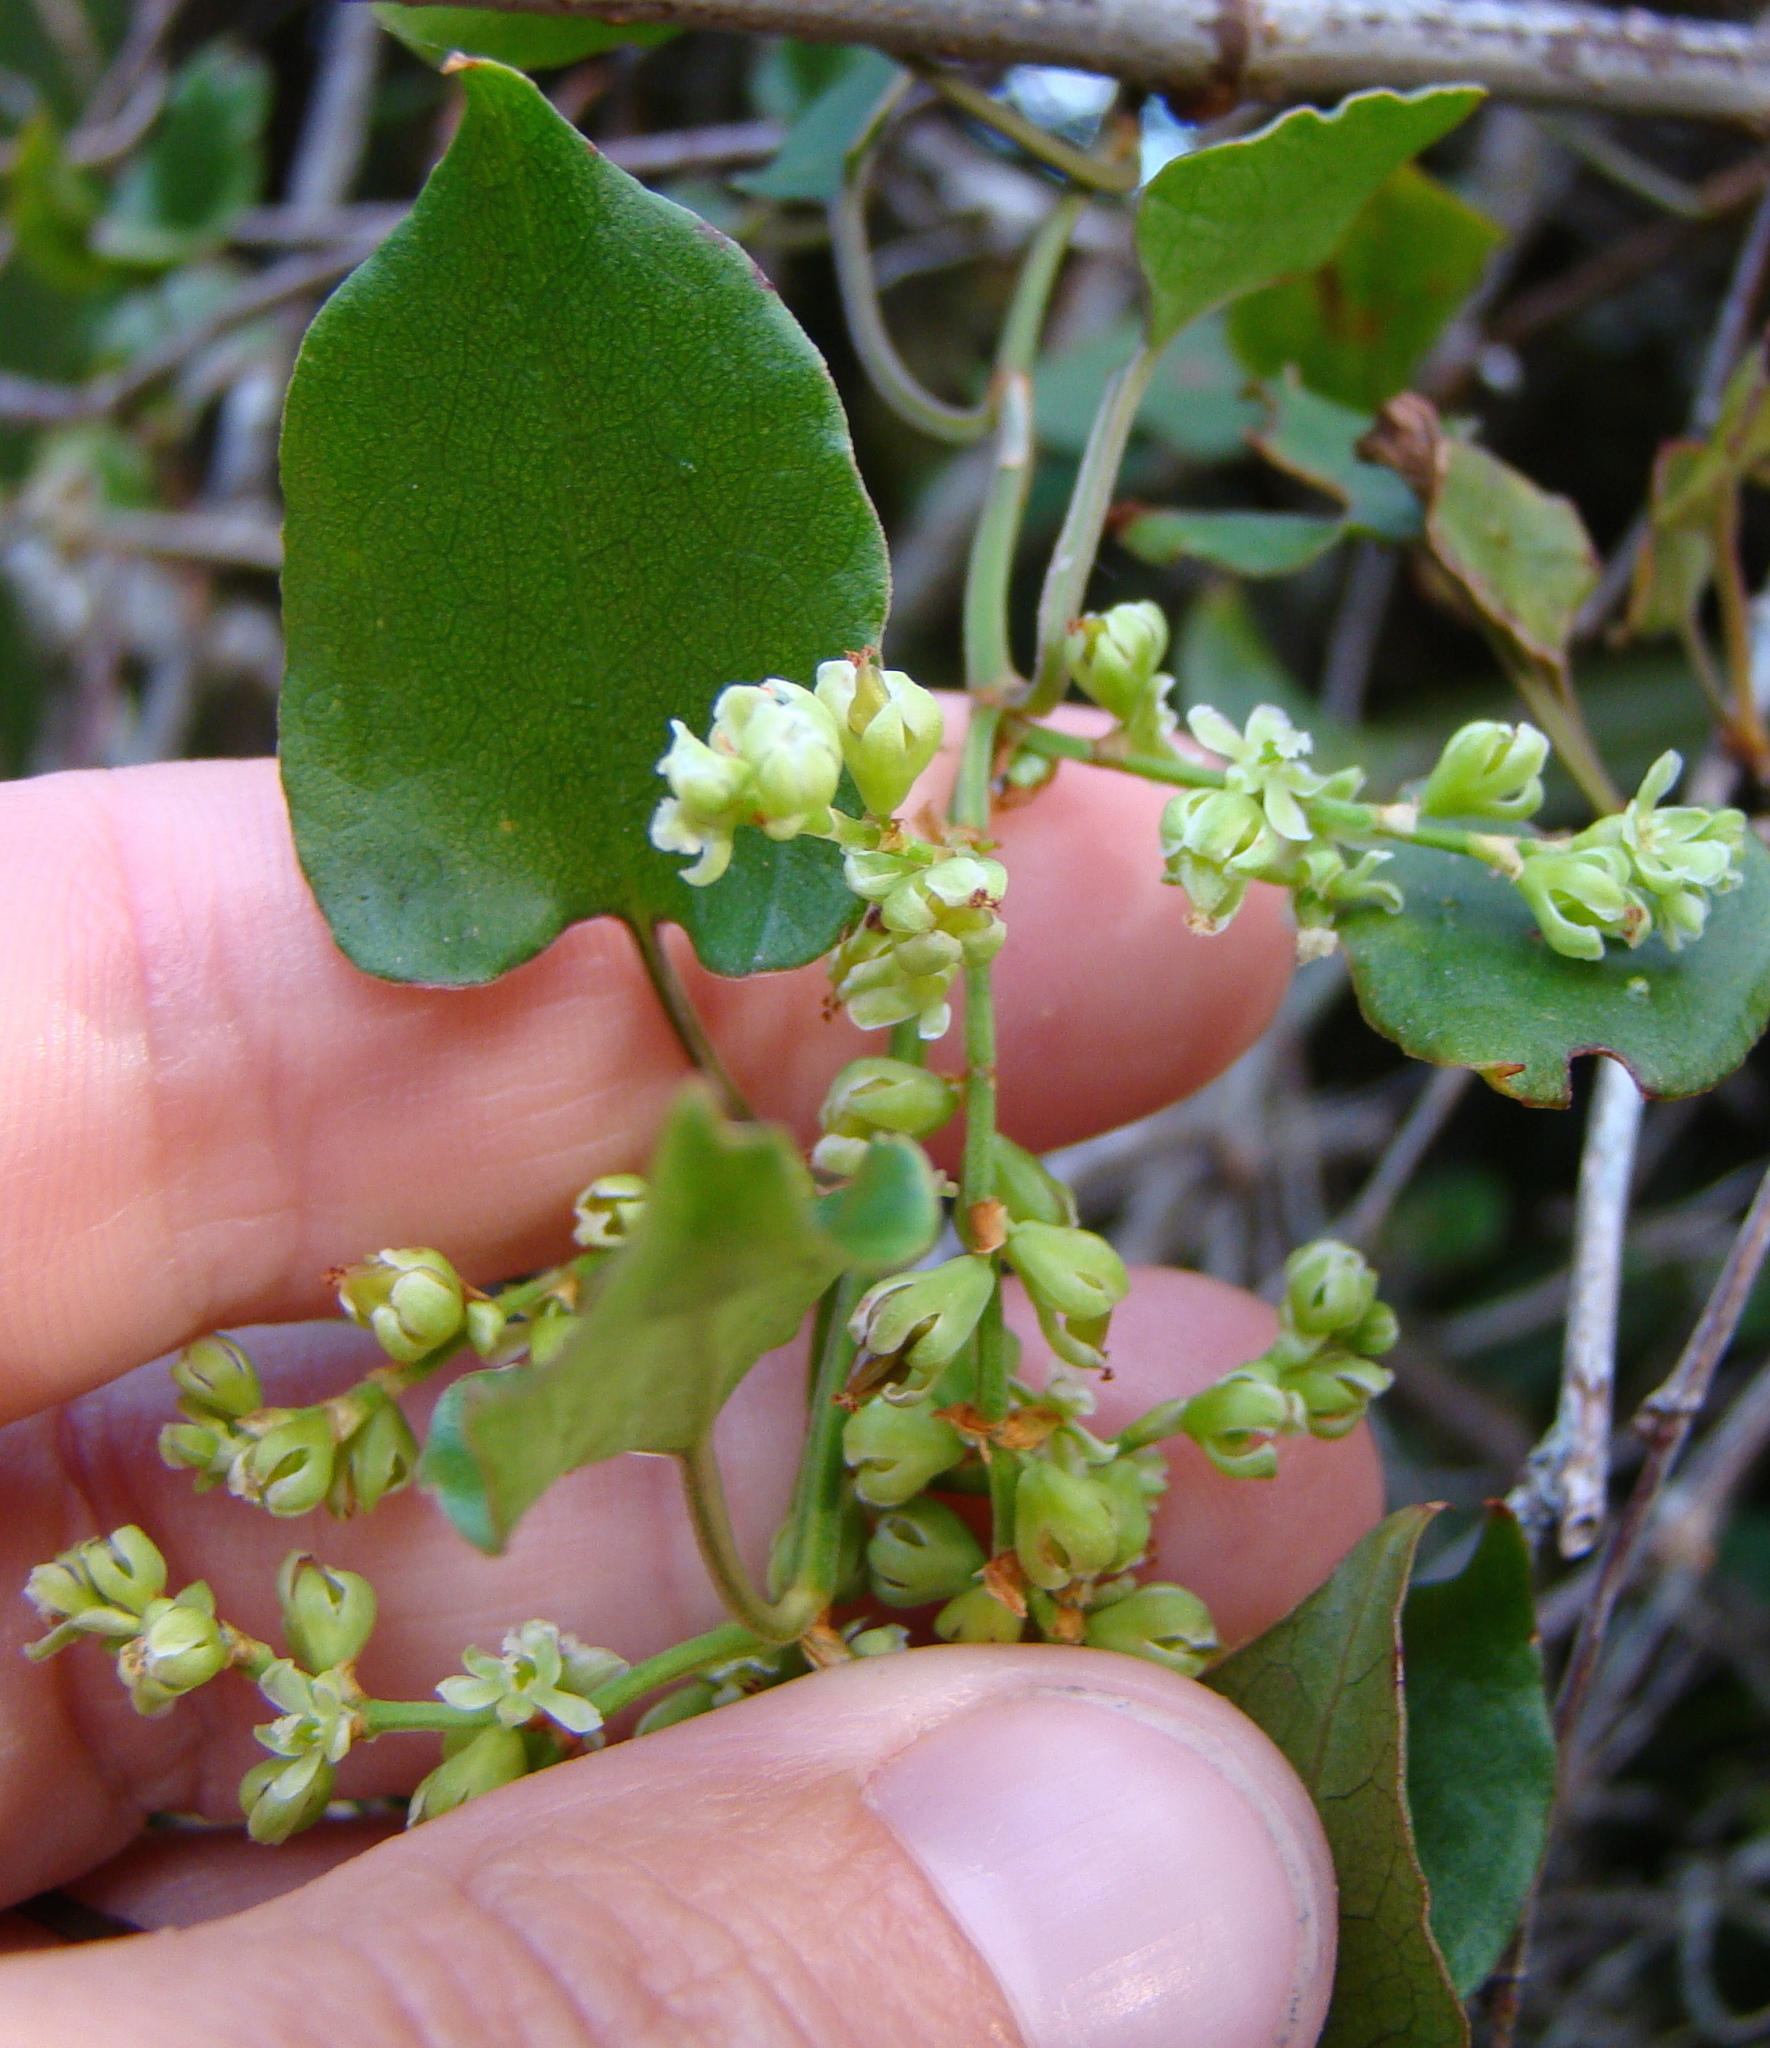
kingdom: Plantae
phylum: Tracheophyta
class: Magnoliopsida
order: Caryophyllales
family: Polygonaceae
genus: Muehlenbeckia
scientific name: Muehlenbeckia australis
